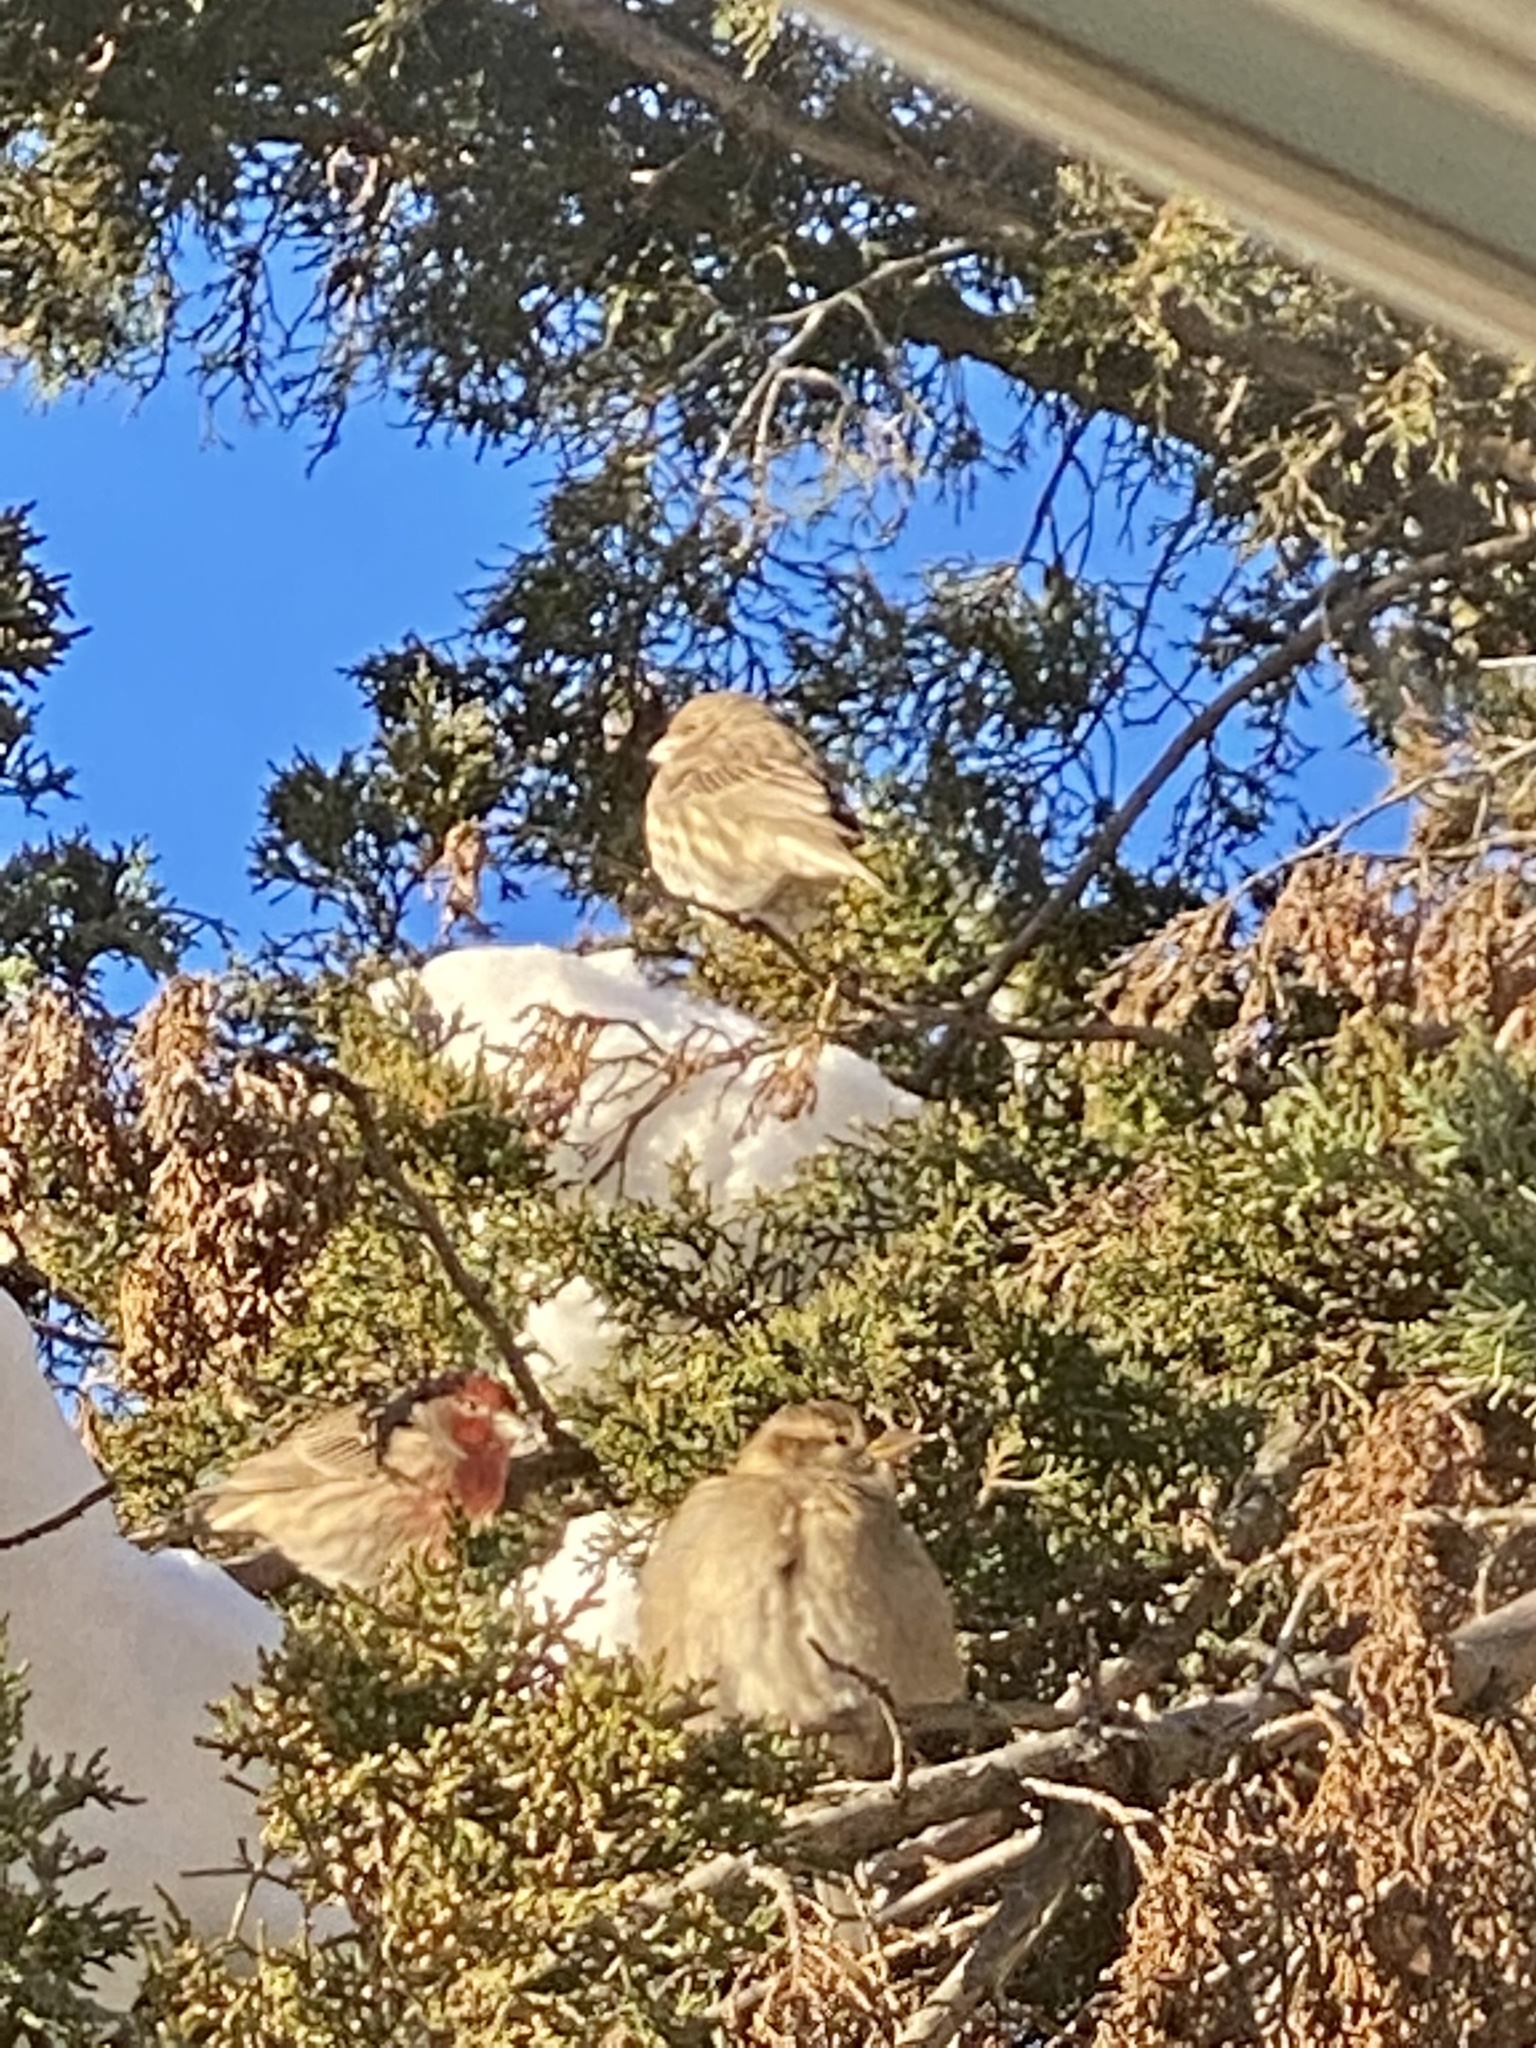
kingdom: Animalia
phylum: Chordata
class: Aves
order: Passeriformes
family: Fringillidae
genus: Haemorhous
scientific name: Haemorhous mexicanus
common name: House finch
